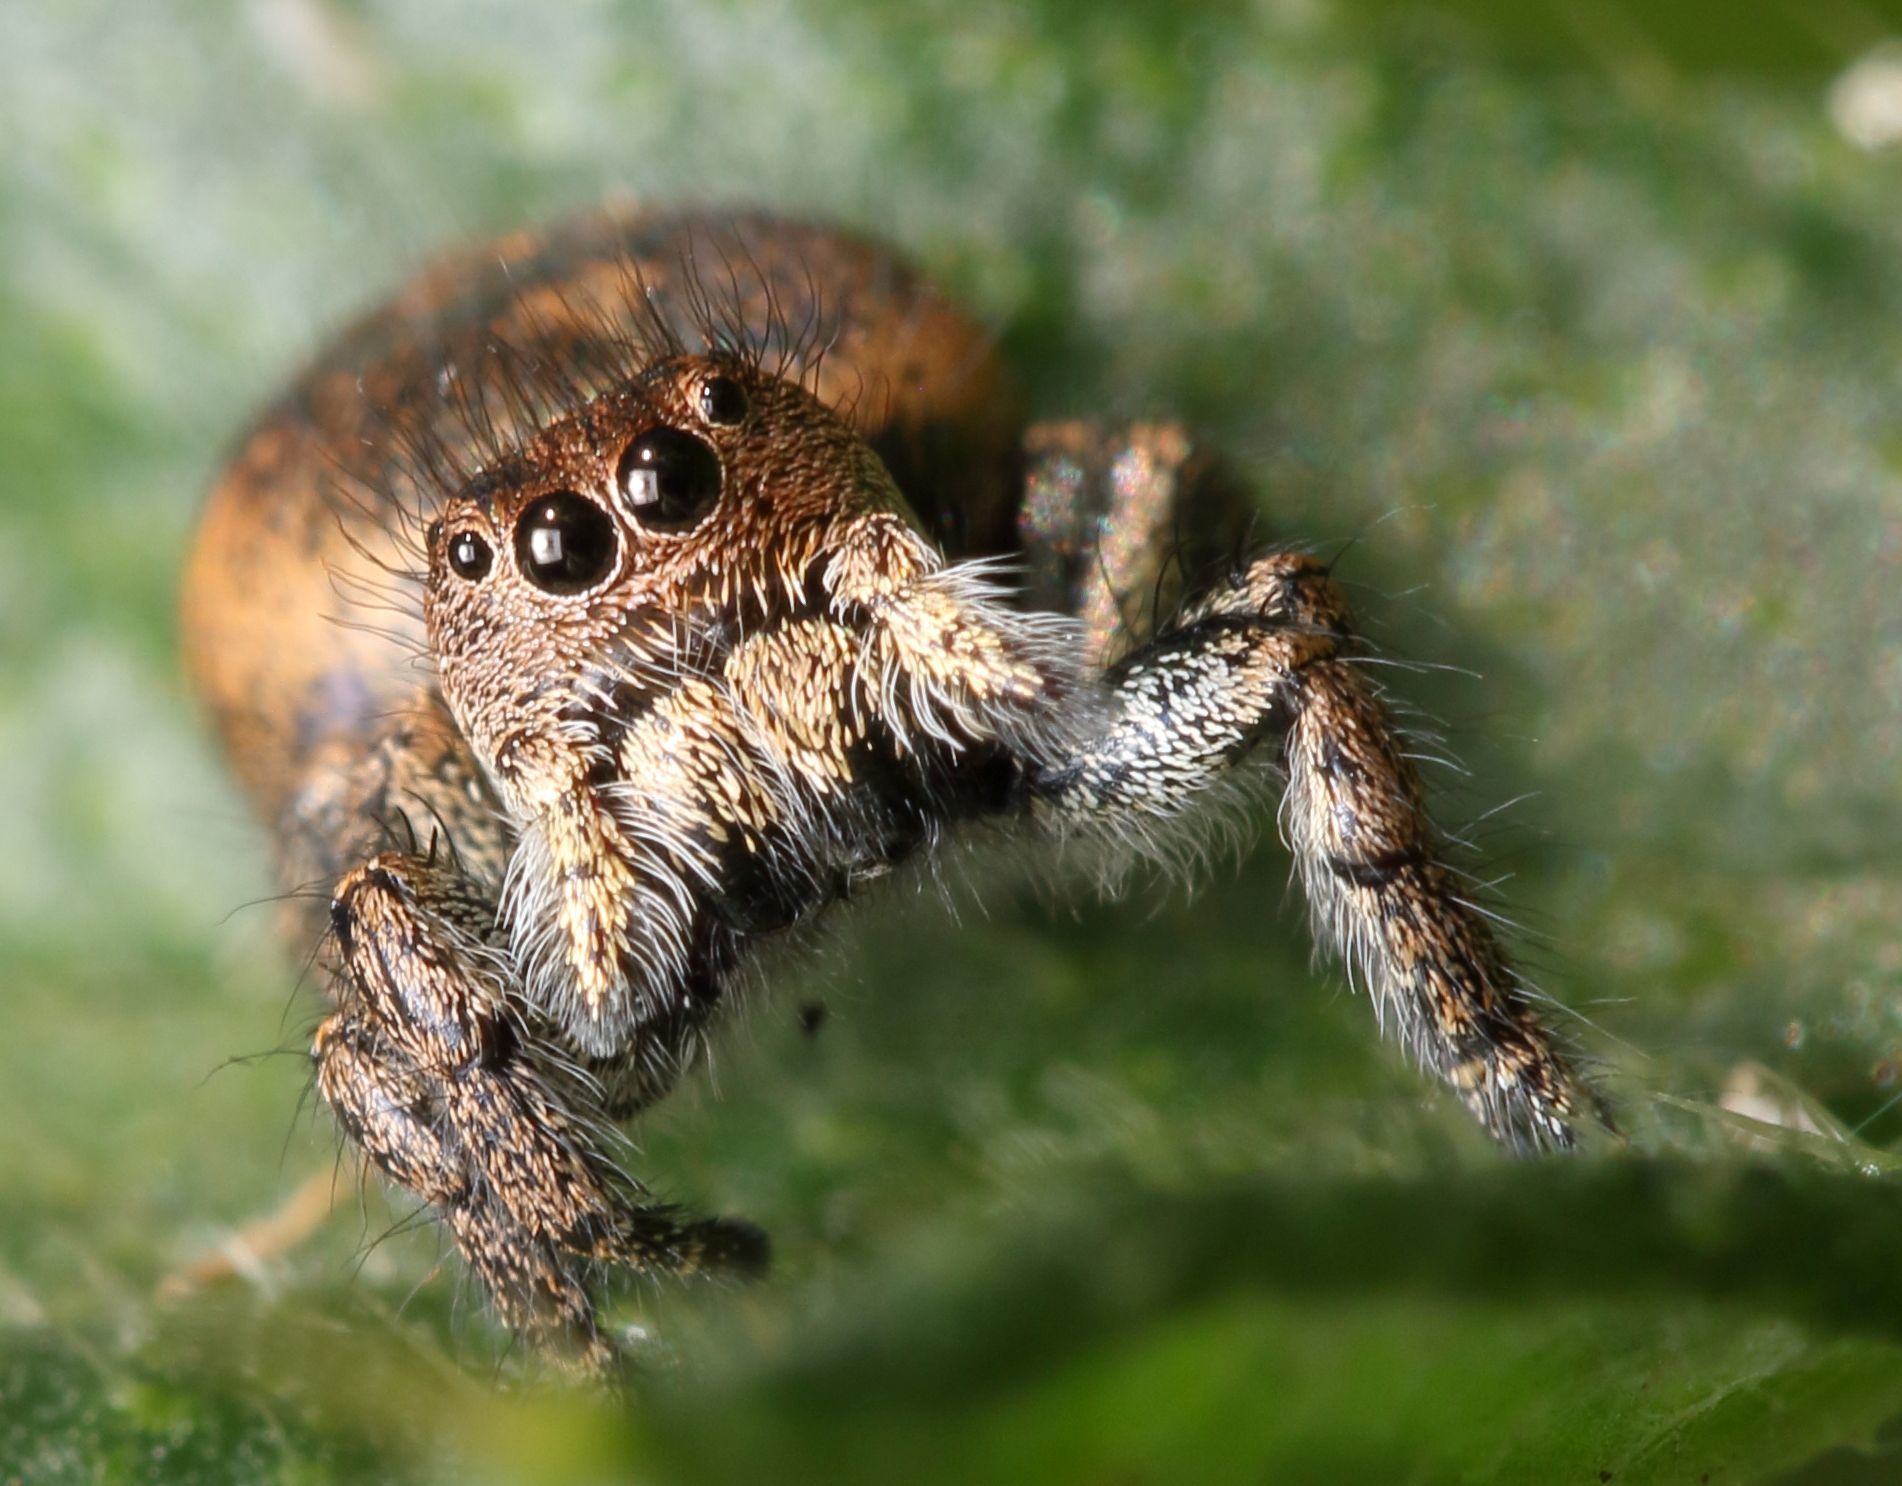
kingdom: Animalia
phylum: Arthropoda
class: Arachnida
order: Araneae
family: Salticidae
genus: Baryphas
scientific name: Baryphas ahenus
